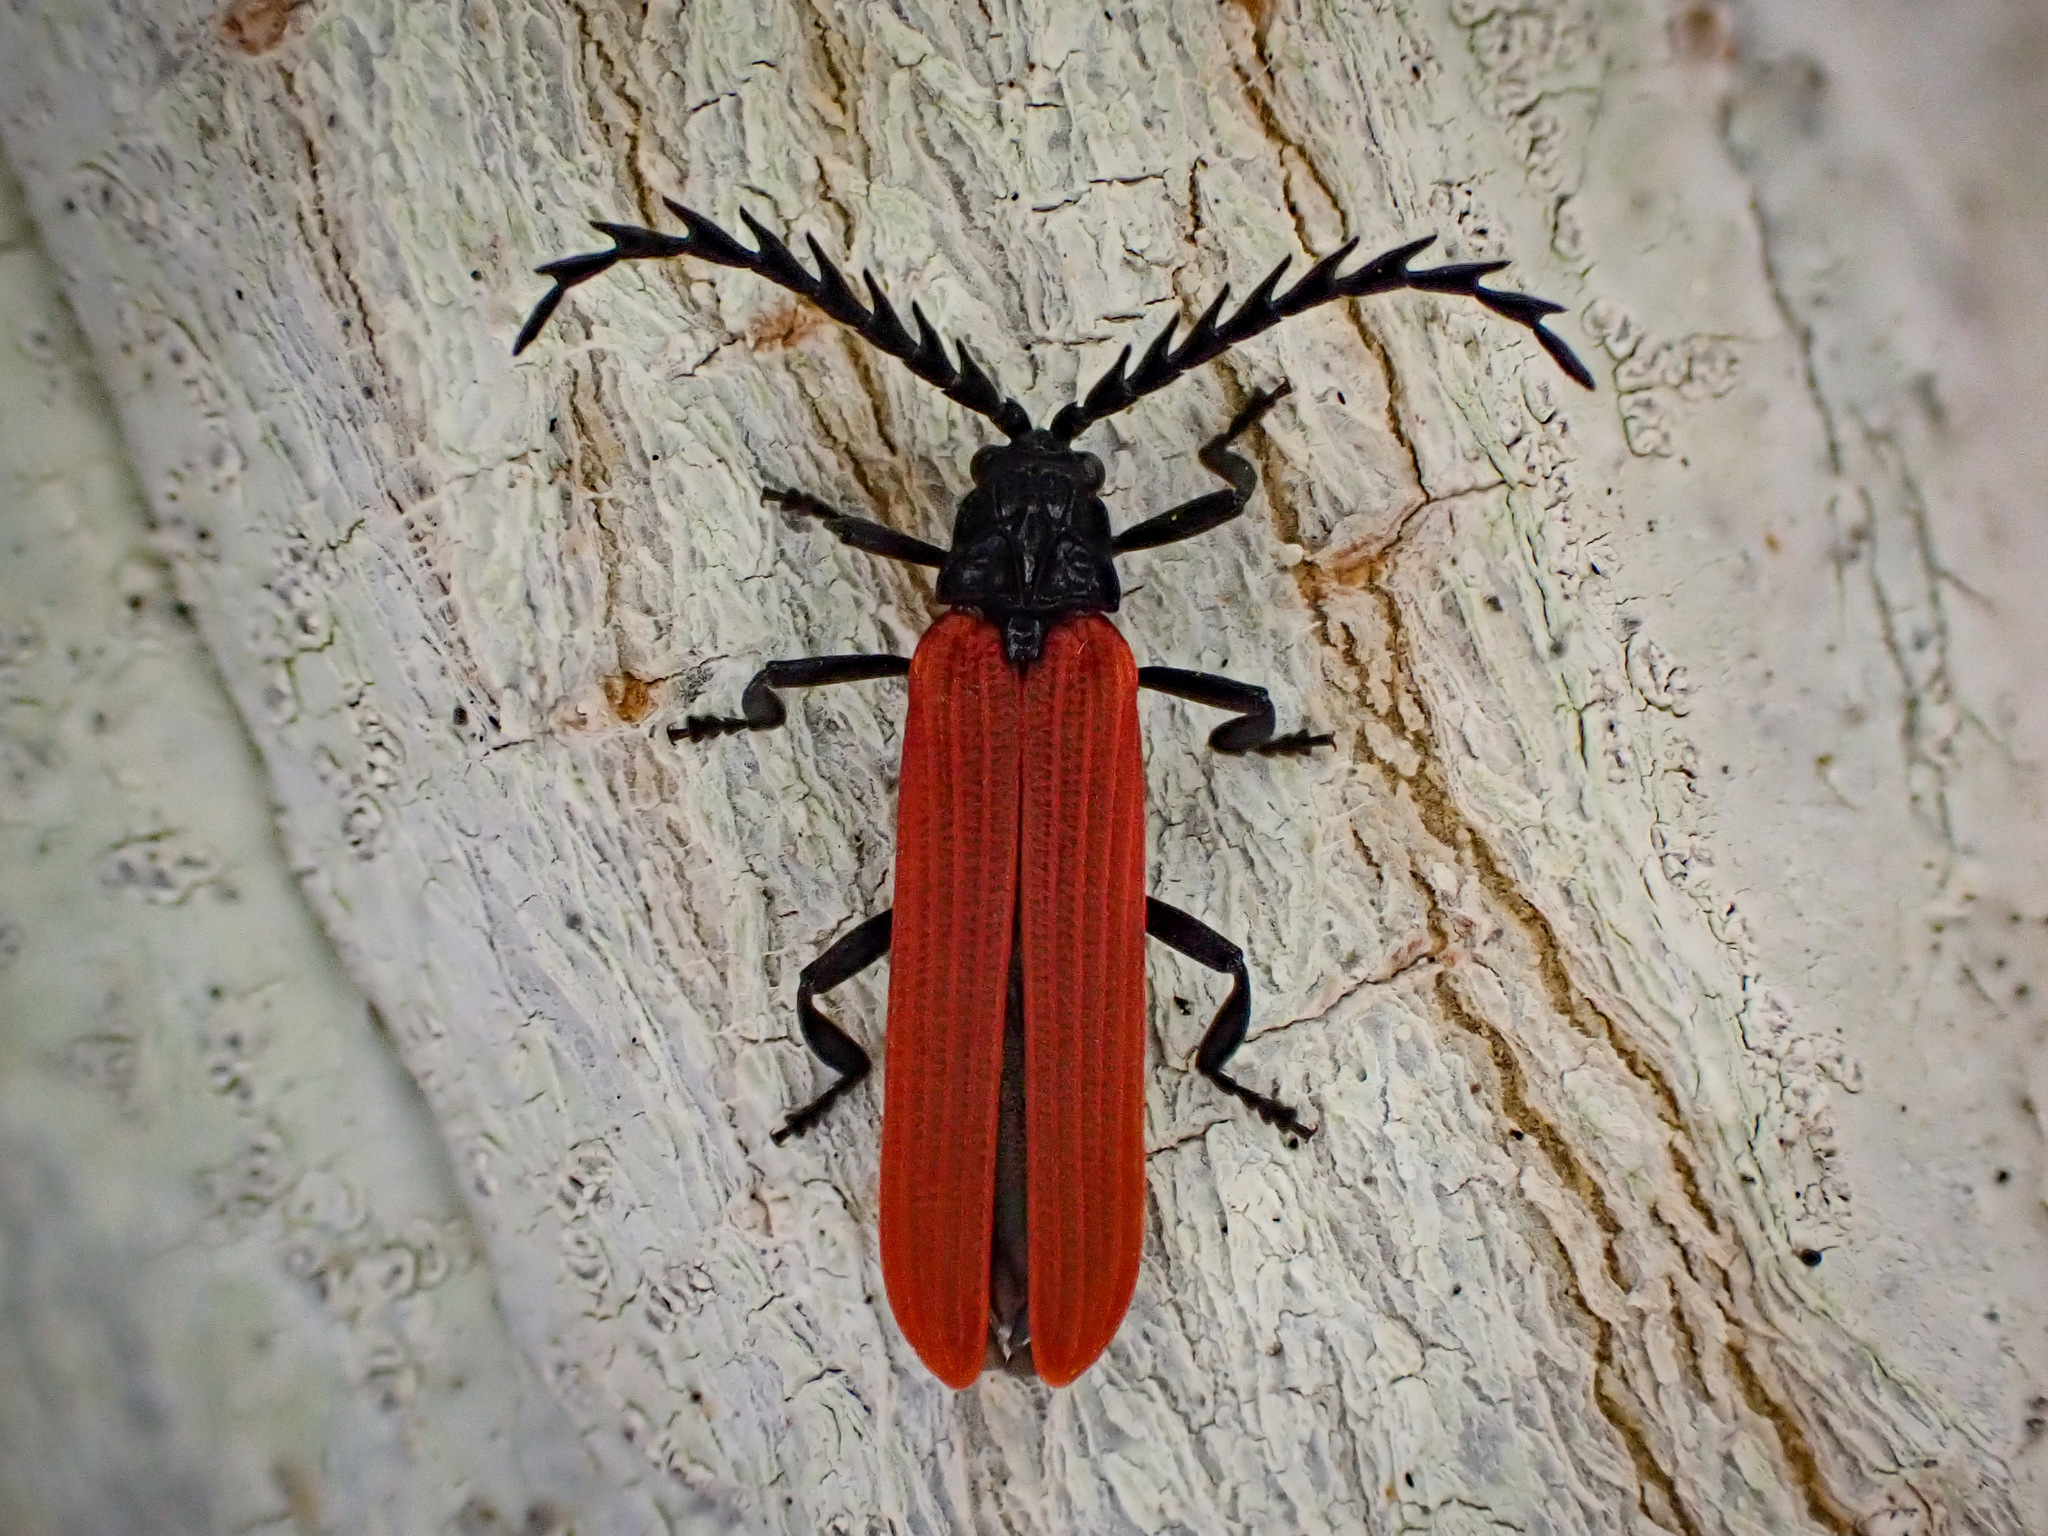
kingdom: Animalia
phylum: Arthropoda
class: Insecta
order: Coleoptera
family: Lycidae
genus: Porrostoma
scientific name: Porrostoma rufipenne
